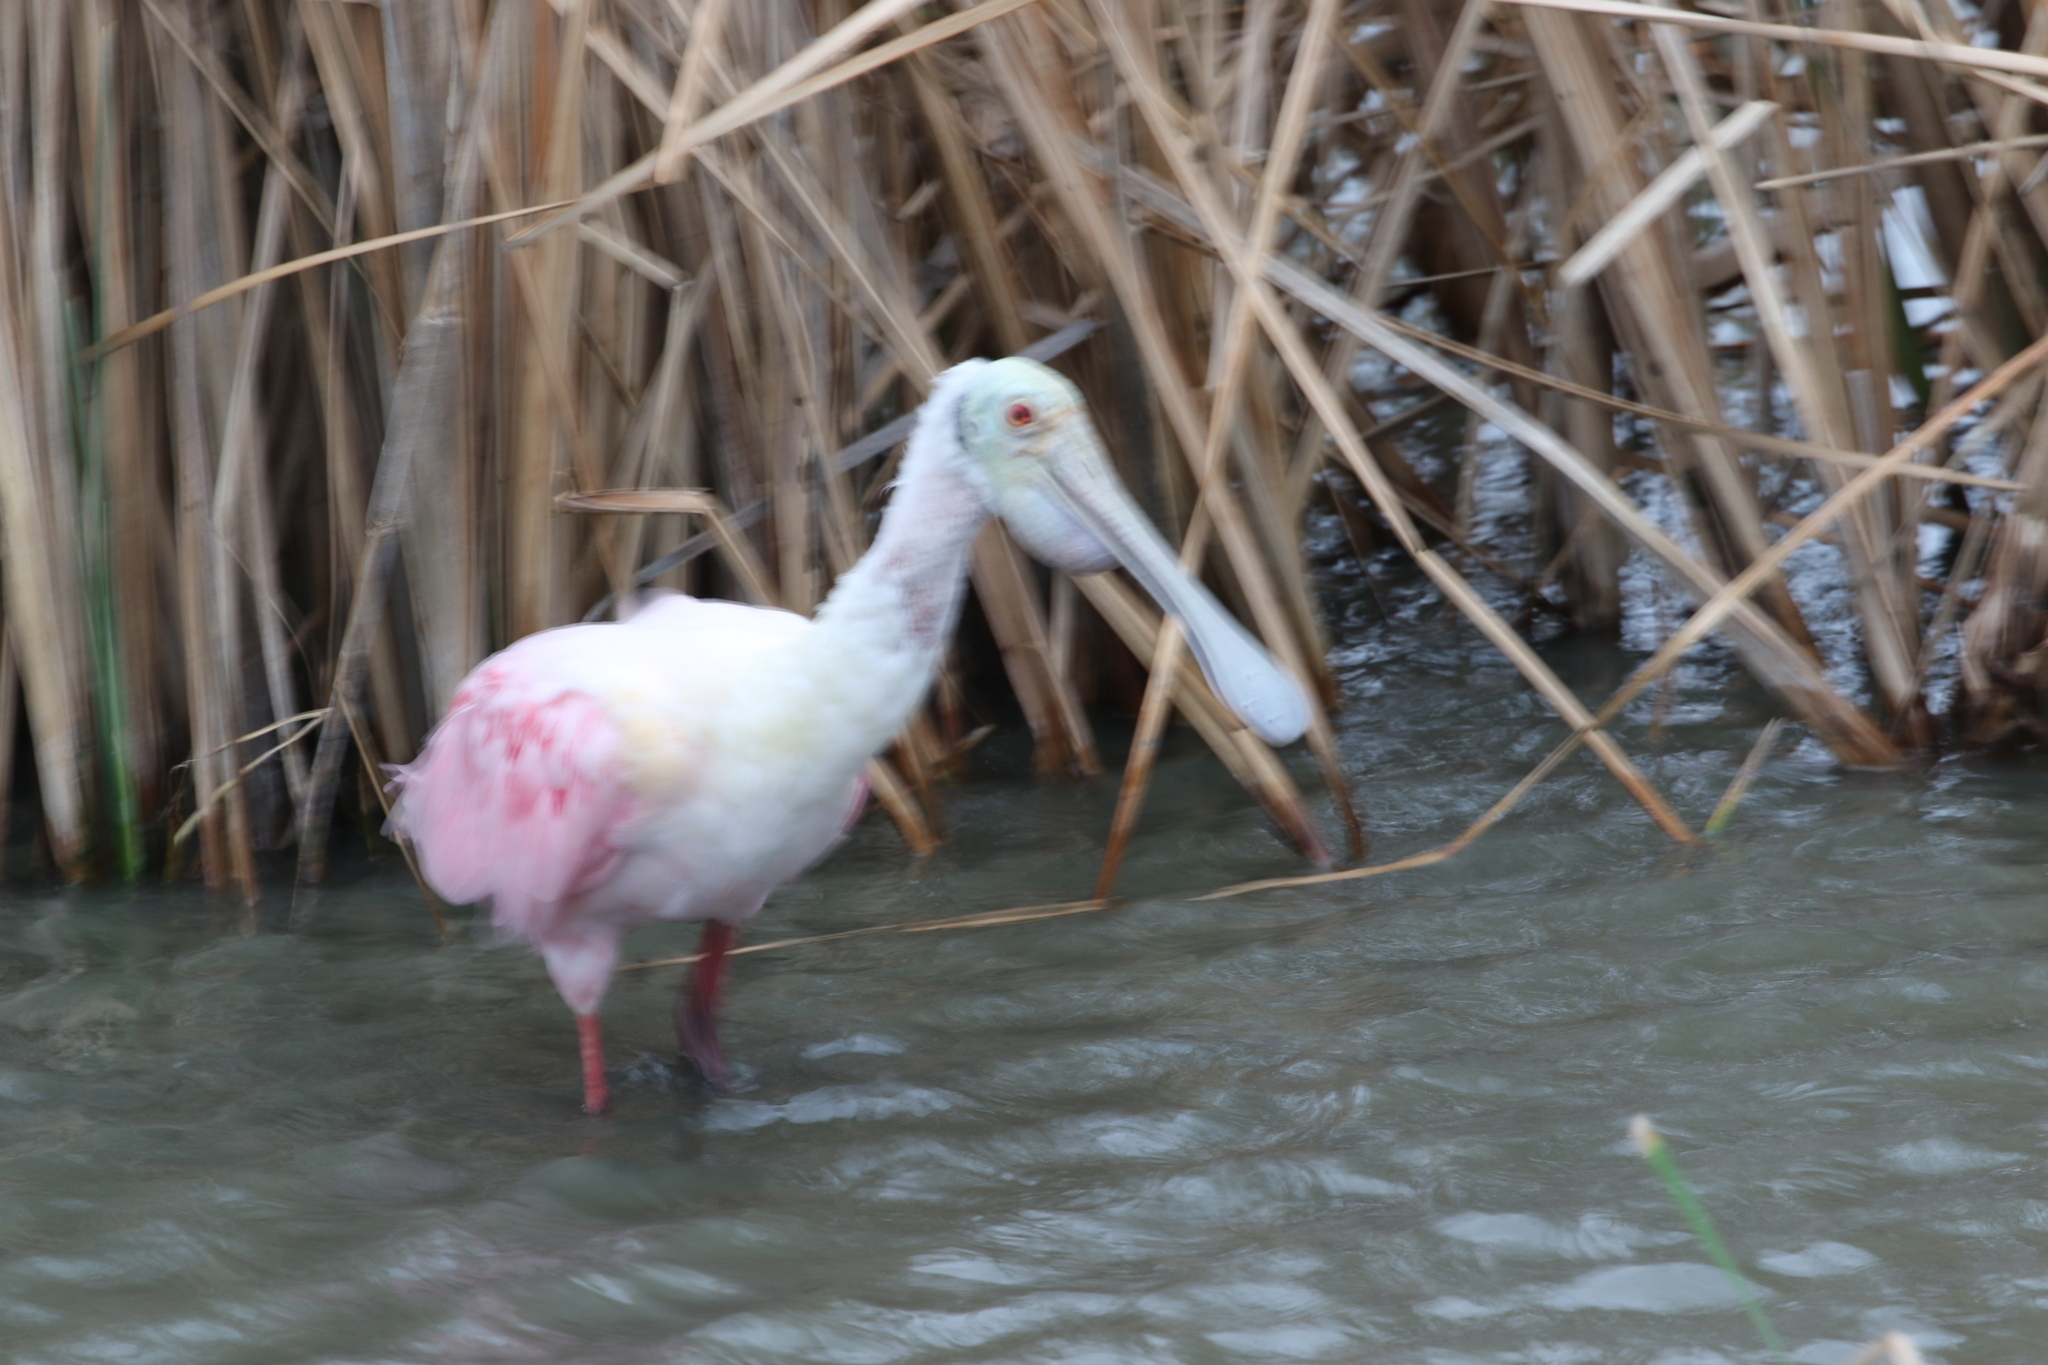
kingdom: Animalia
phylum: Chordata
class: Aves
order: Pelecaniformes
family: Threskiornithidae
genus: Platalea
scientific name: Platalea ajaja
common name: Roseate spoonbill
